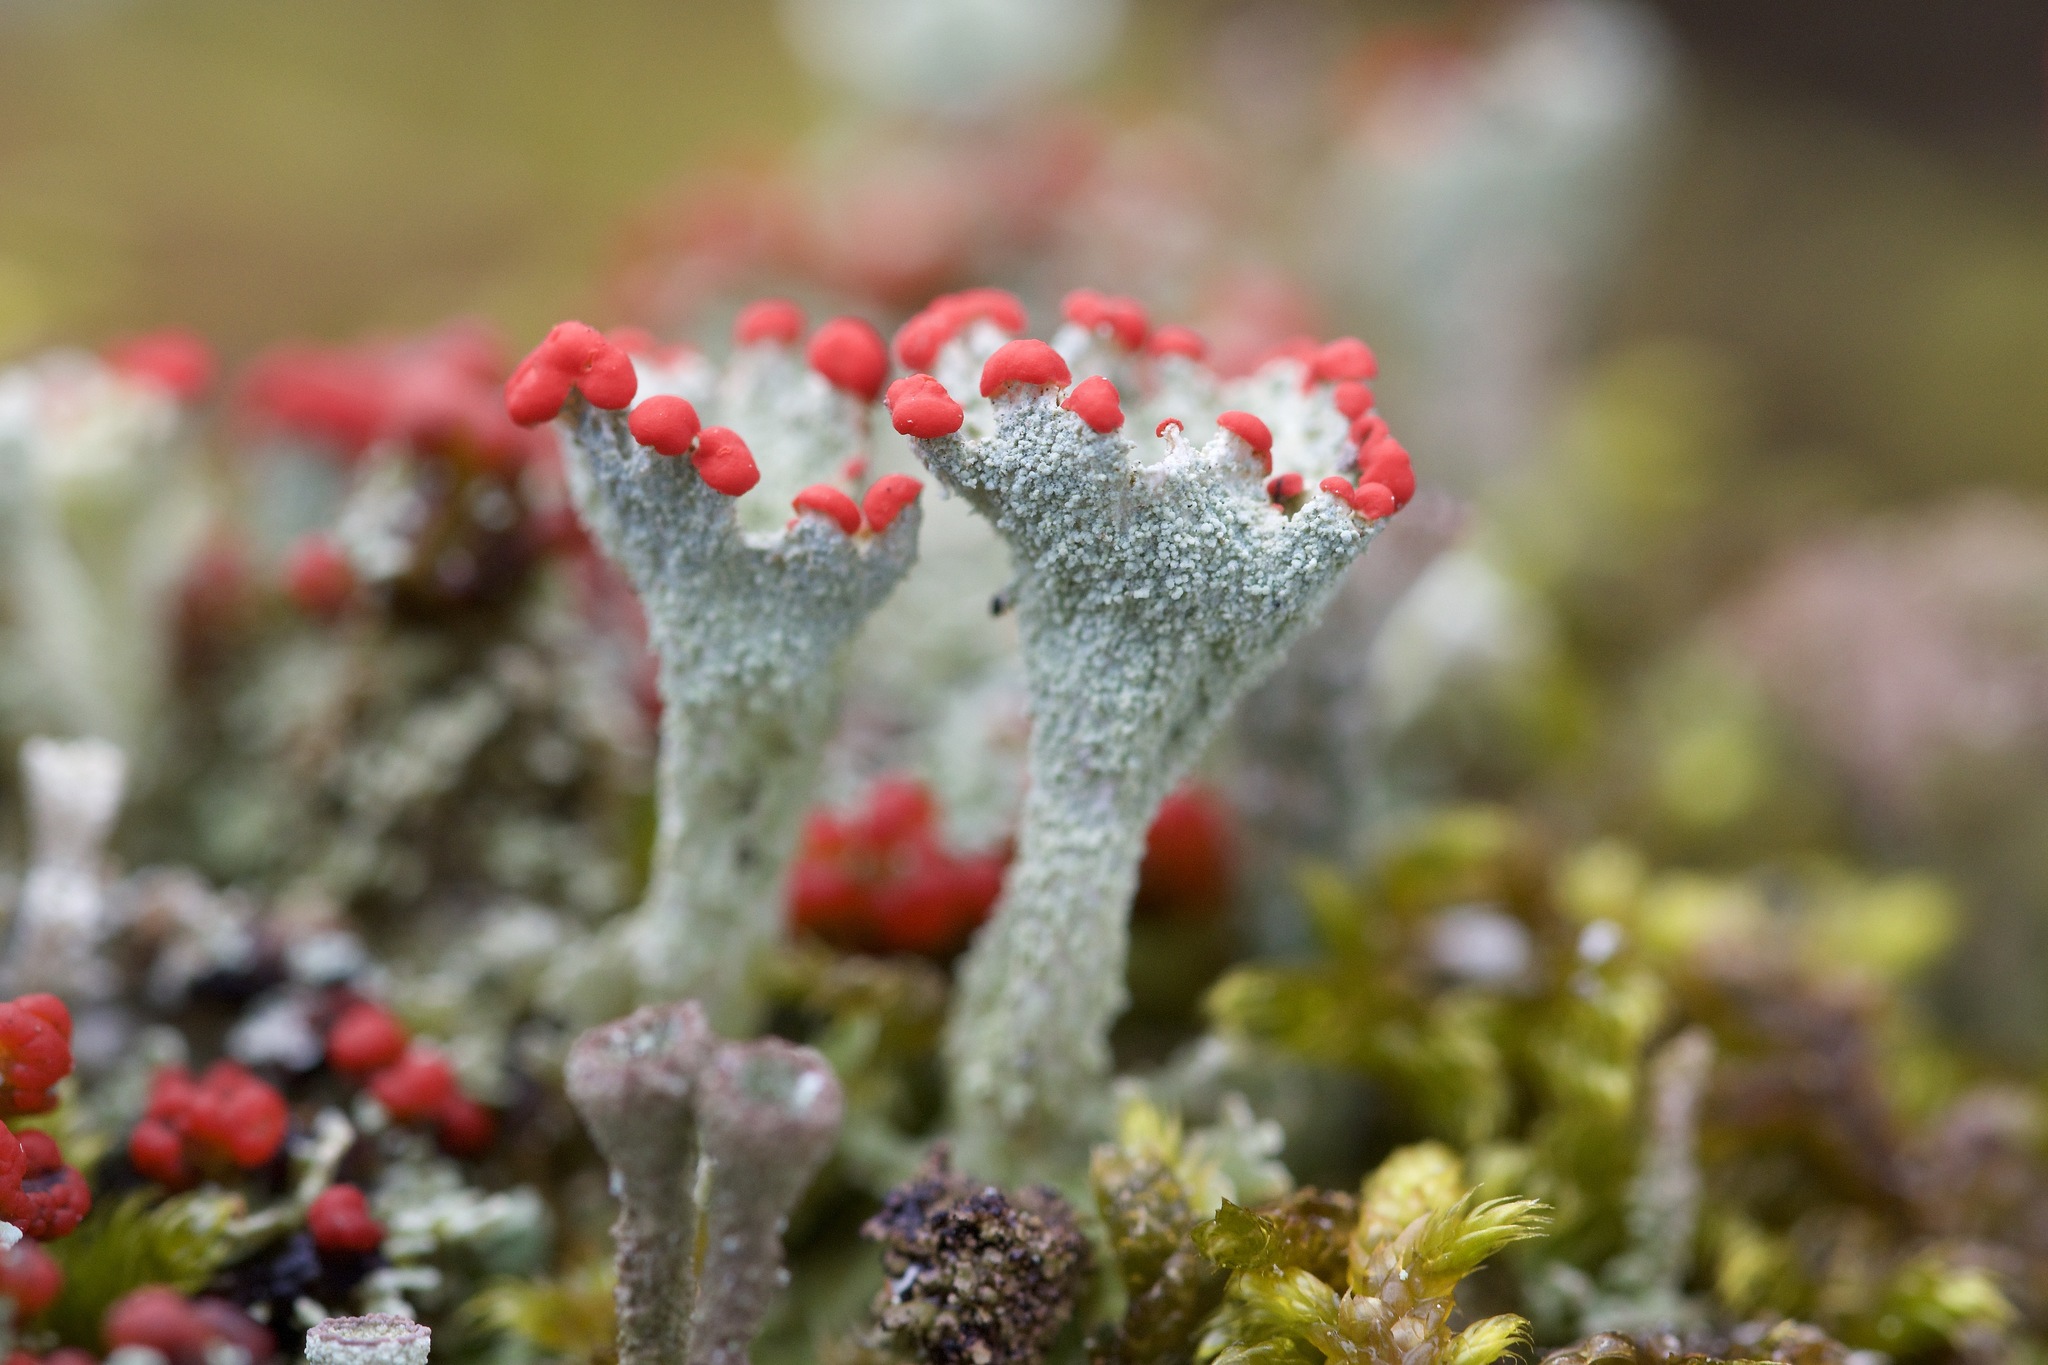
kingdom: Fungi
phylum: Ascomycota
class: Lecanoromycetes
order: Lecanorales
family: Cladoniaceae
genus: Cladonia
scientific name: Cladonia pleurota
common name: Red-fruited pixie cup
